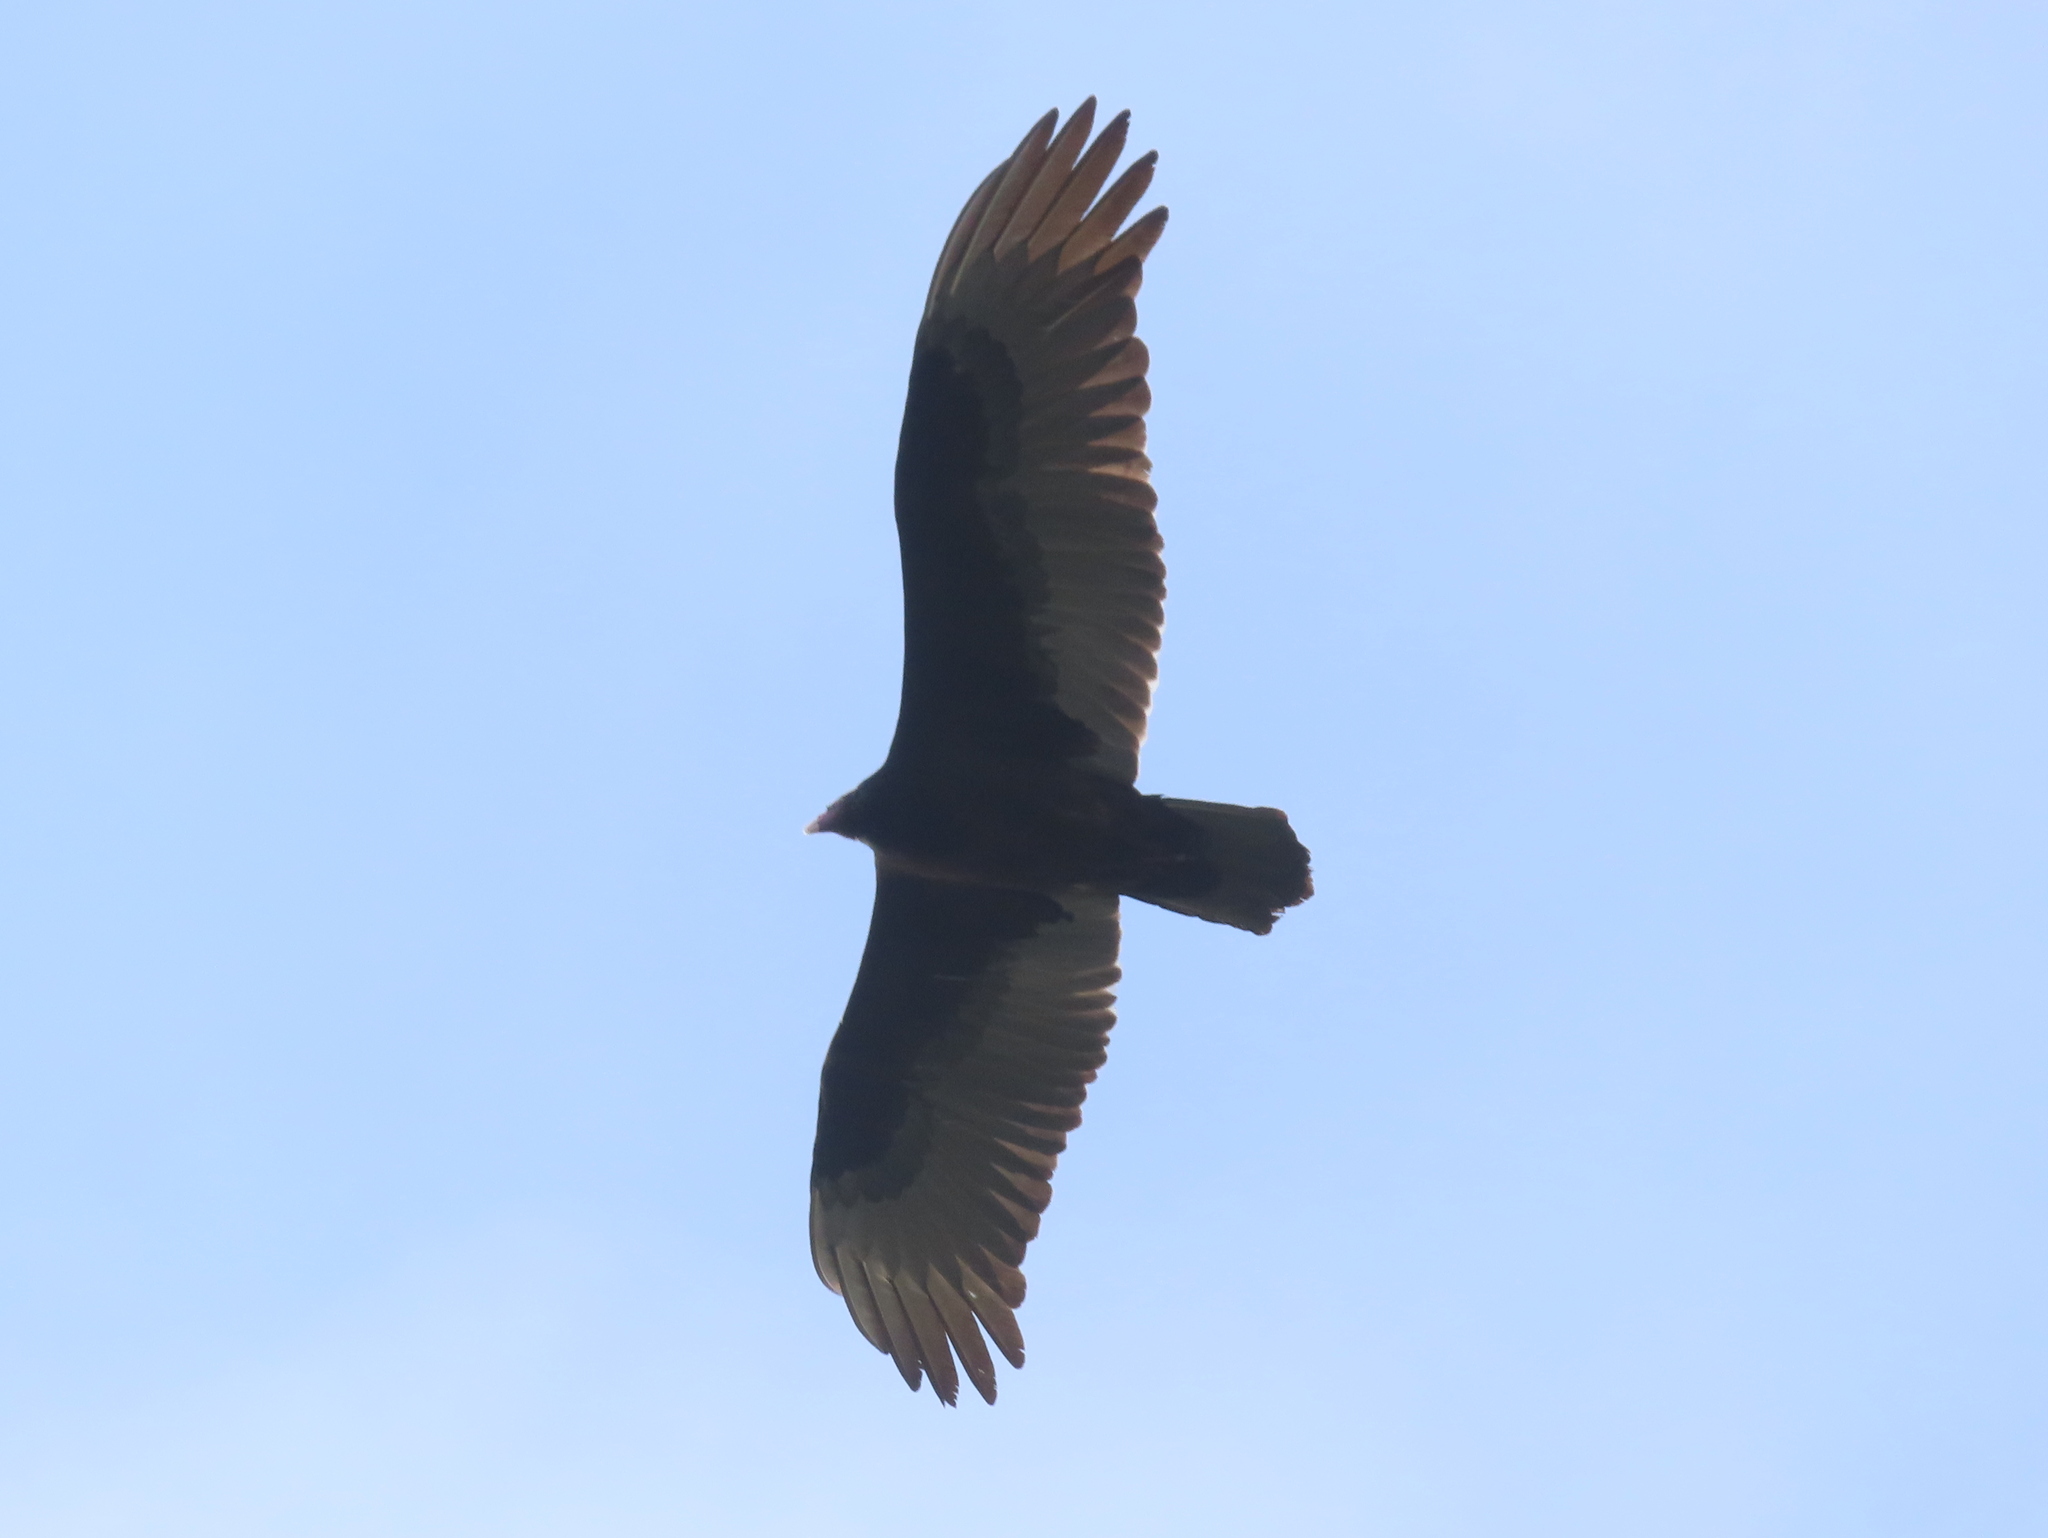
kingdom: Animalia
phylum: Chordata
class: Aves
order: Accipitriformes
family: Cathartidae
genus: Cathartes
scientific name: Cathartes aura
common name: Turkey vulture
